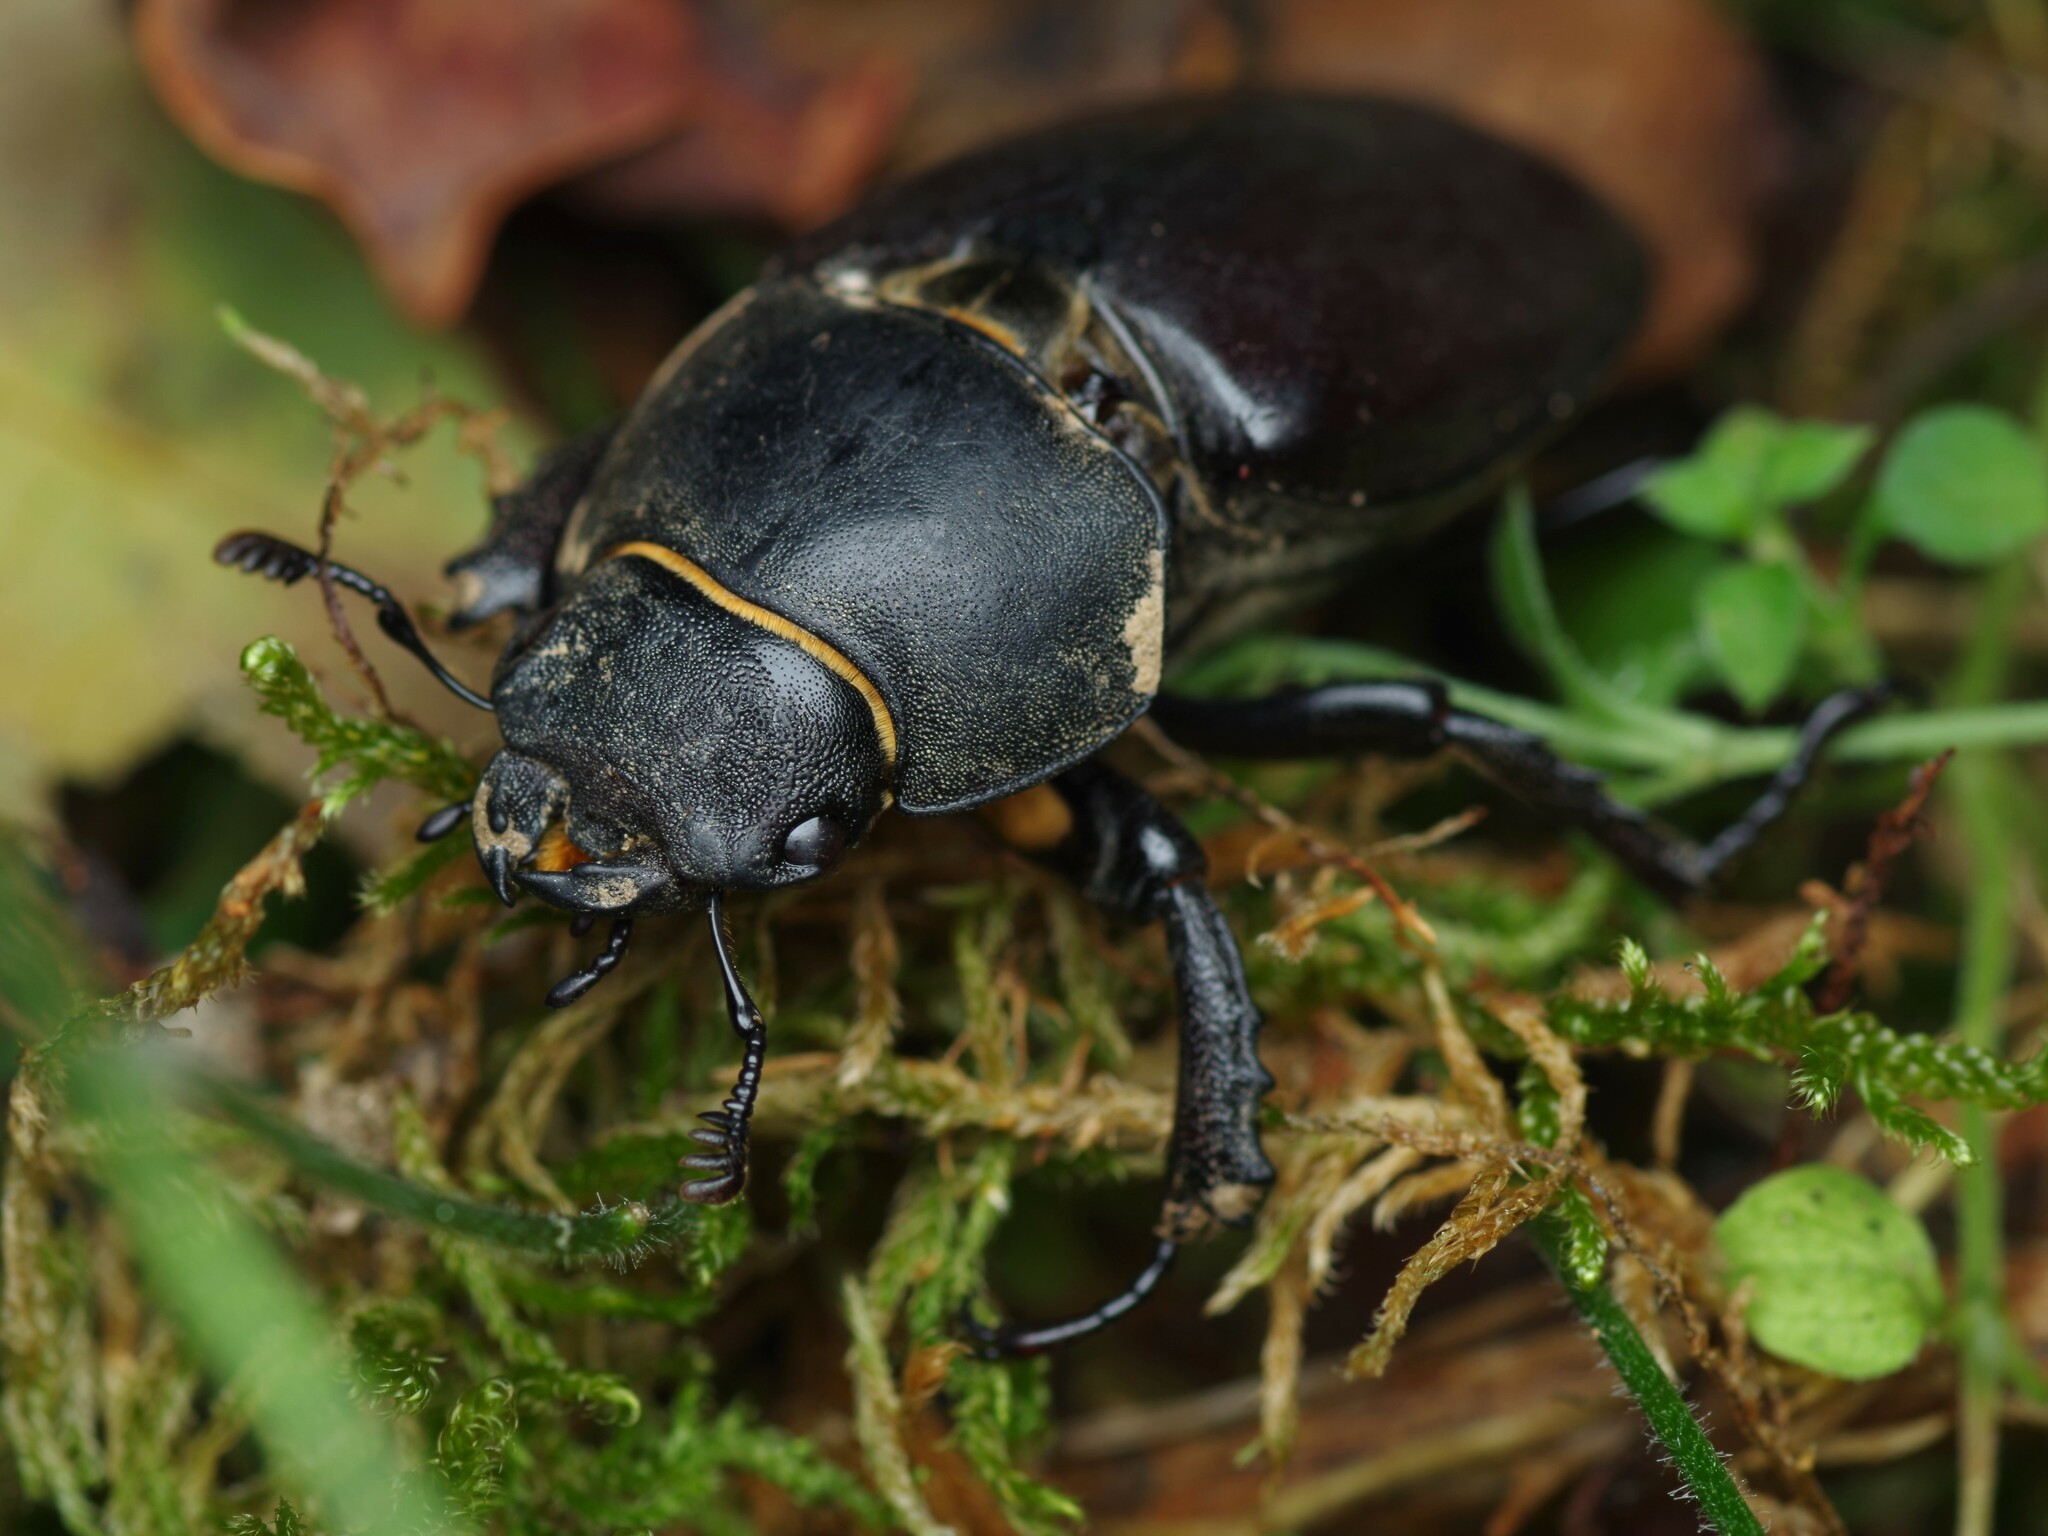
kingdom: Animalia
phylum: Arthropoda
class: Insecta
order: Coleoptera
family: Lucanidae
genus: Lucanus
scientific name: Lucanus cervus
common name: Stag beetle
